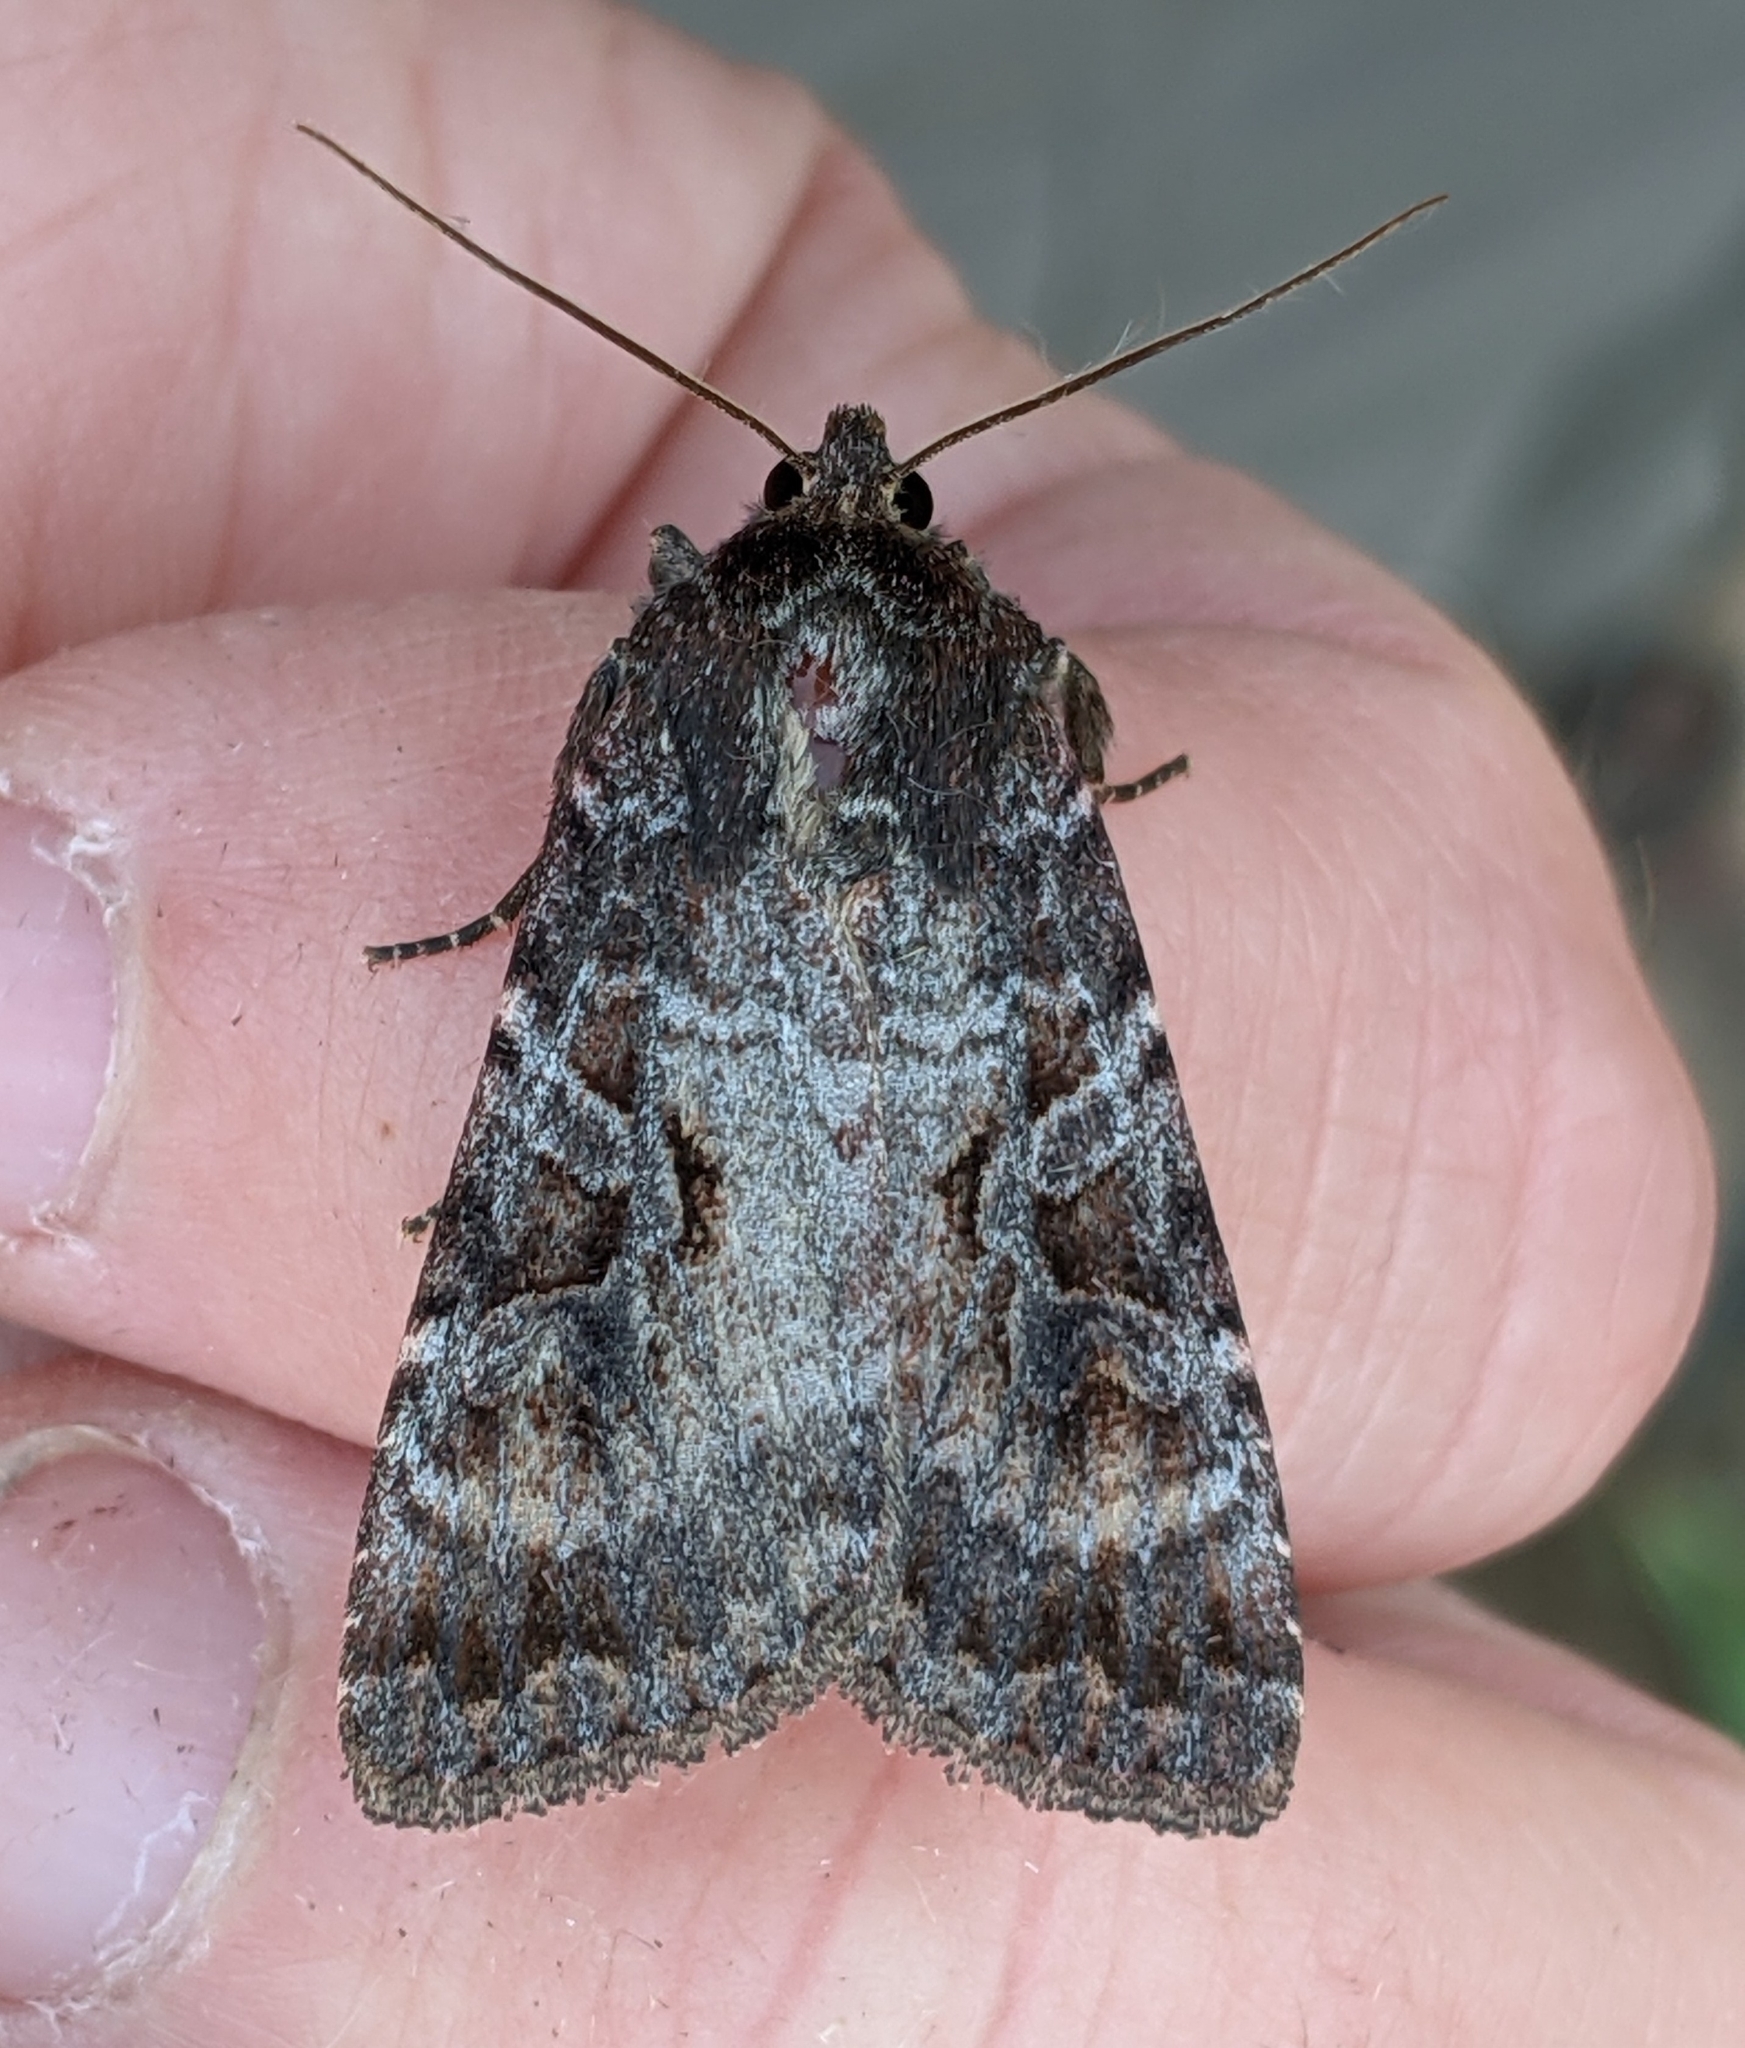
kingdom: Animalia
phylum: Arthropoda
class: Insecta
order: Lepidoptera
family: Noctuidae
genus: Eurois
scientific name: Eurois astricta
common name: Great brown dart
